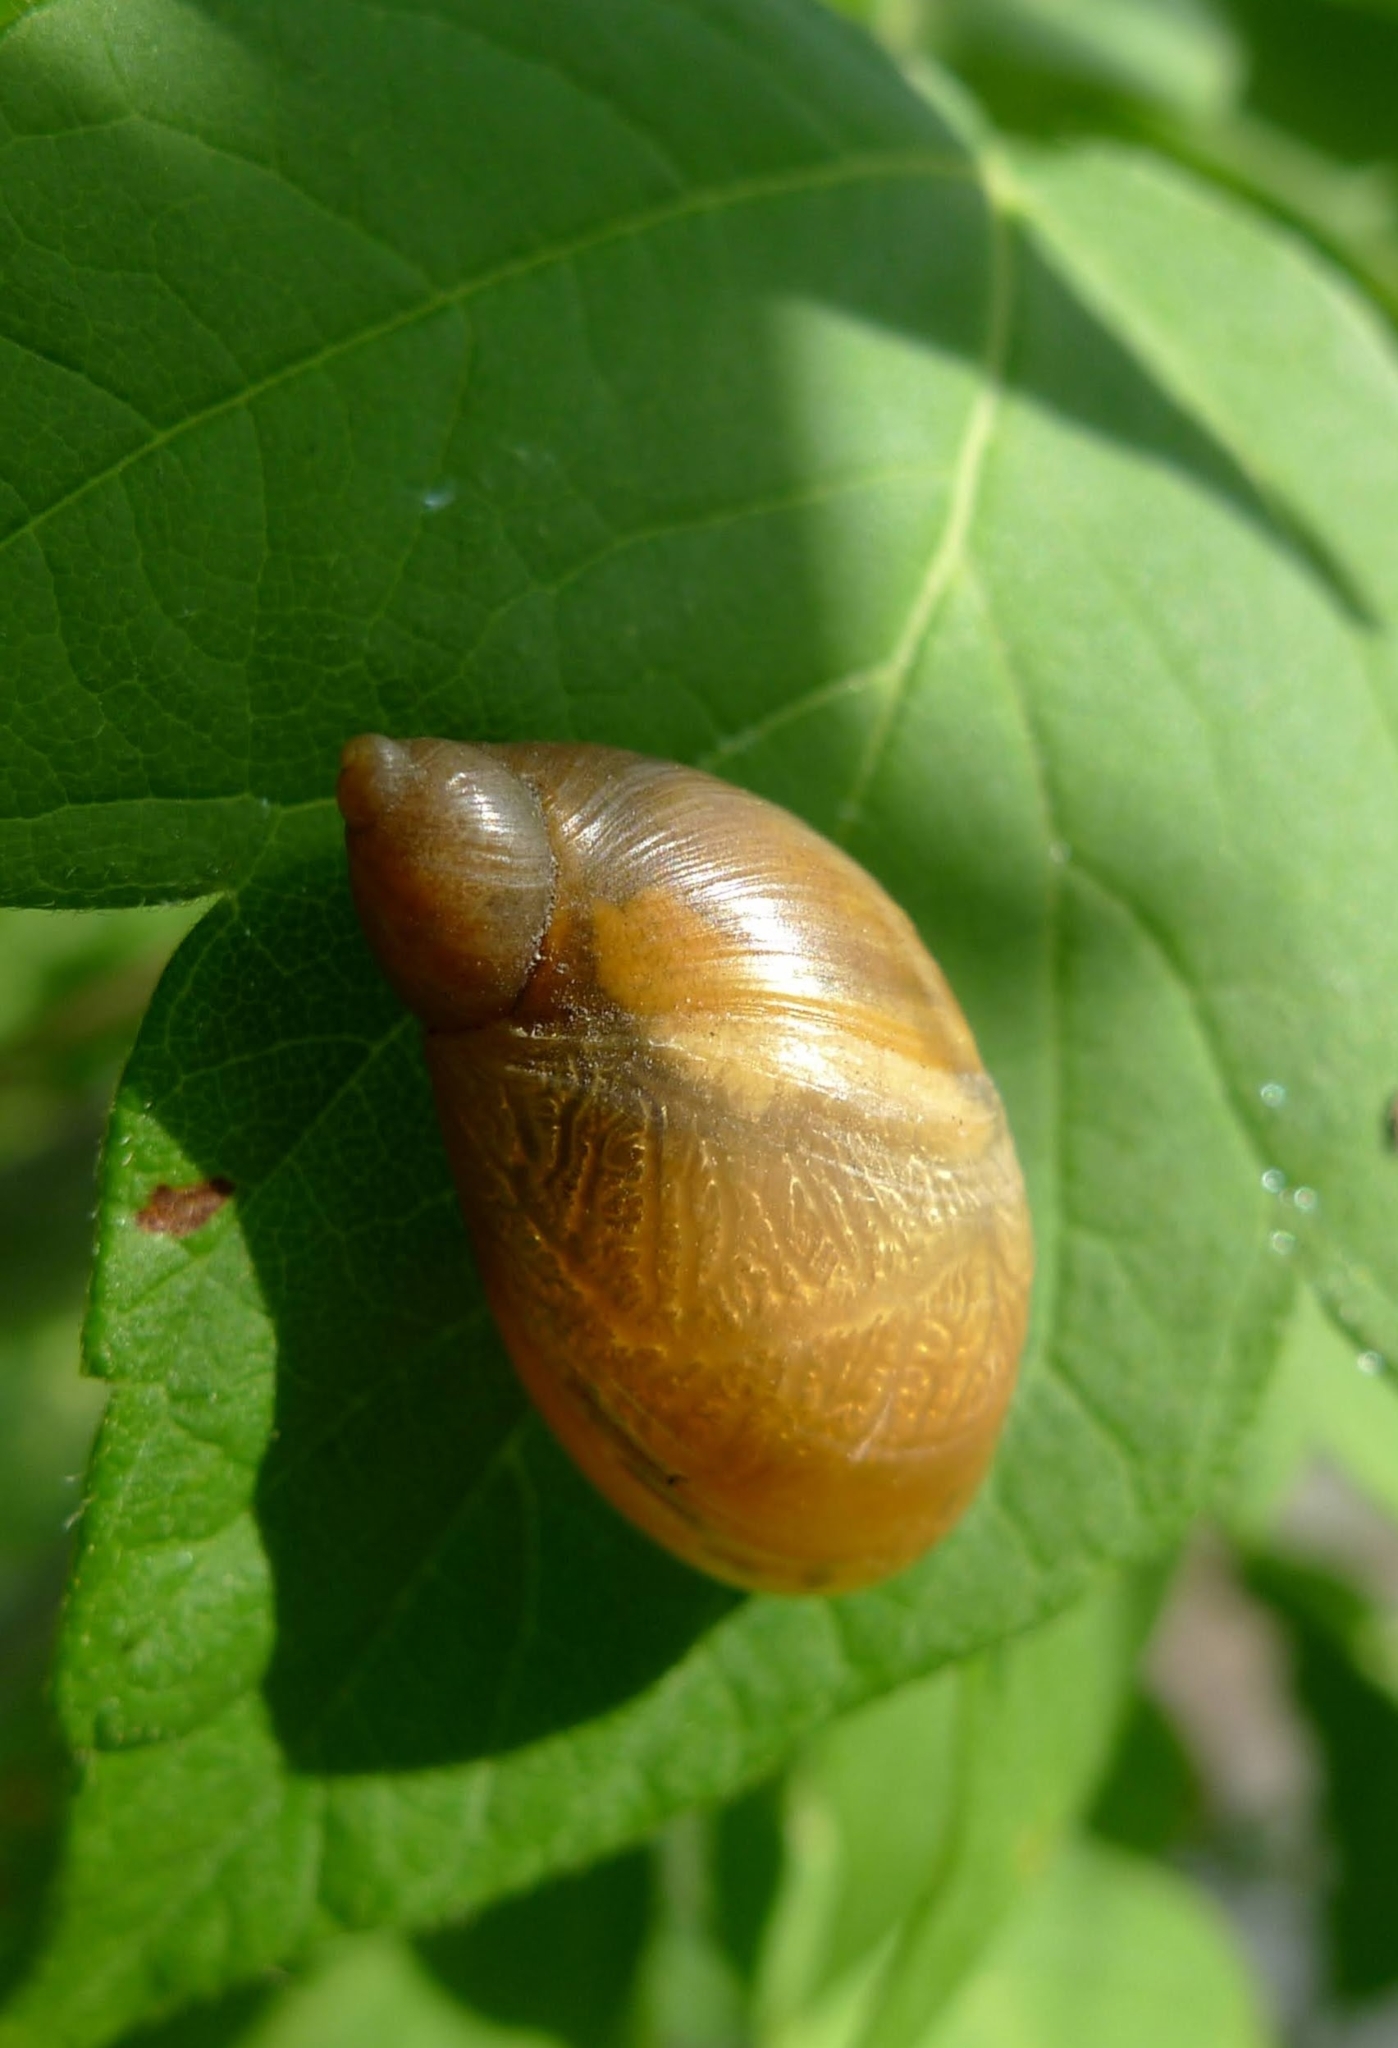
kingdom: Animalia
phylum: Mollusca
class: Gastropoda
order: Stylommatophora
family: Succineidae
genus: Succinea
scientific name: Succinea putris
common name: European ambersnail
